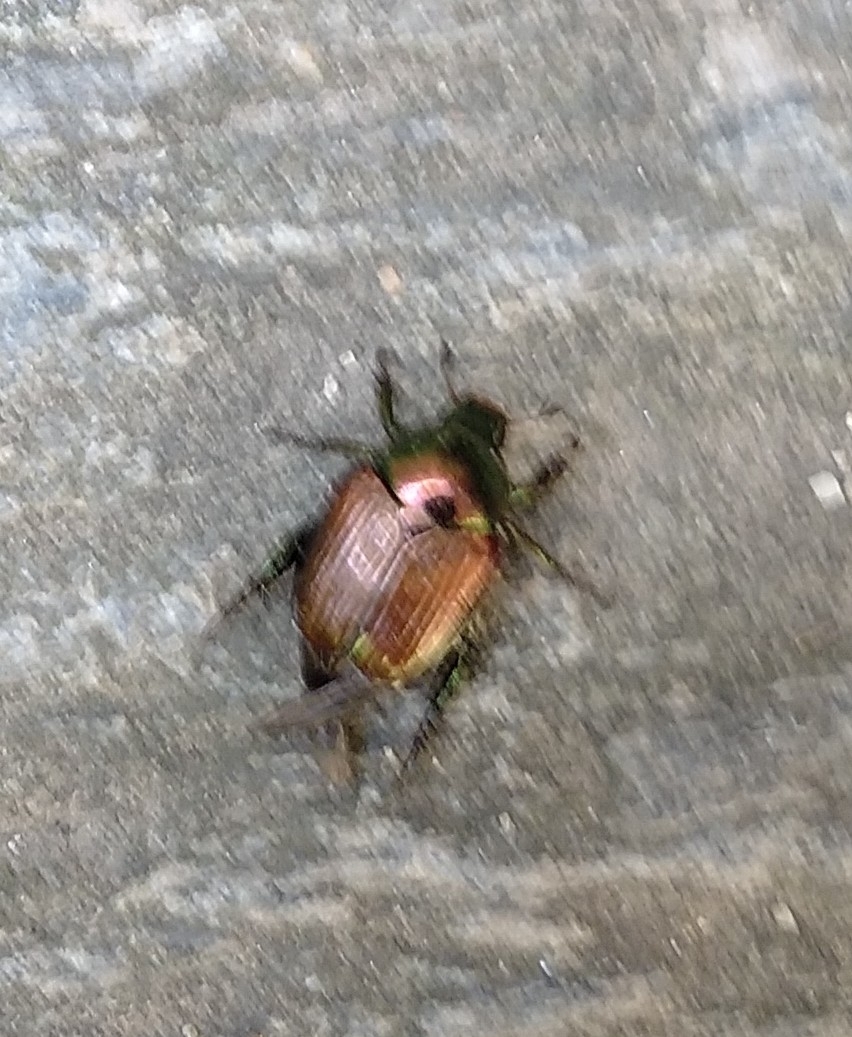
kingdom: Animalia
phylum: Arthropoda
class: Insecta
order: Coleoptera
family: Scarabaeidae
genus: Popillia
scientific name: Popillia japonica
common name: Japanese beetle
